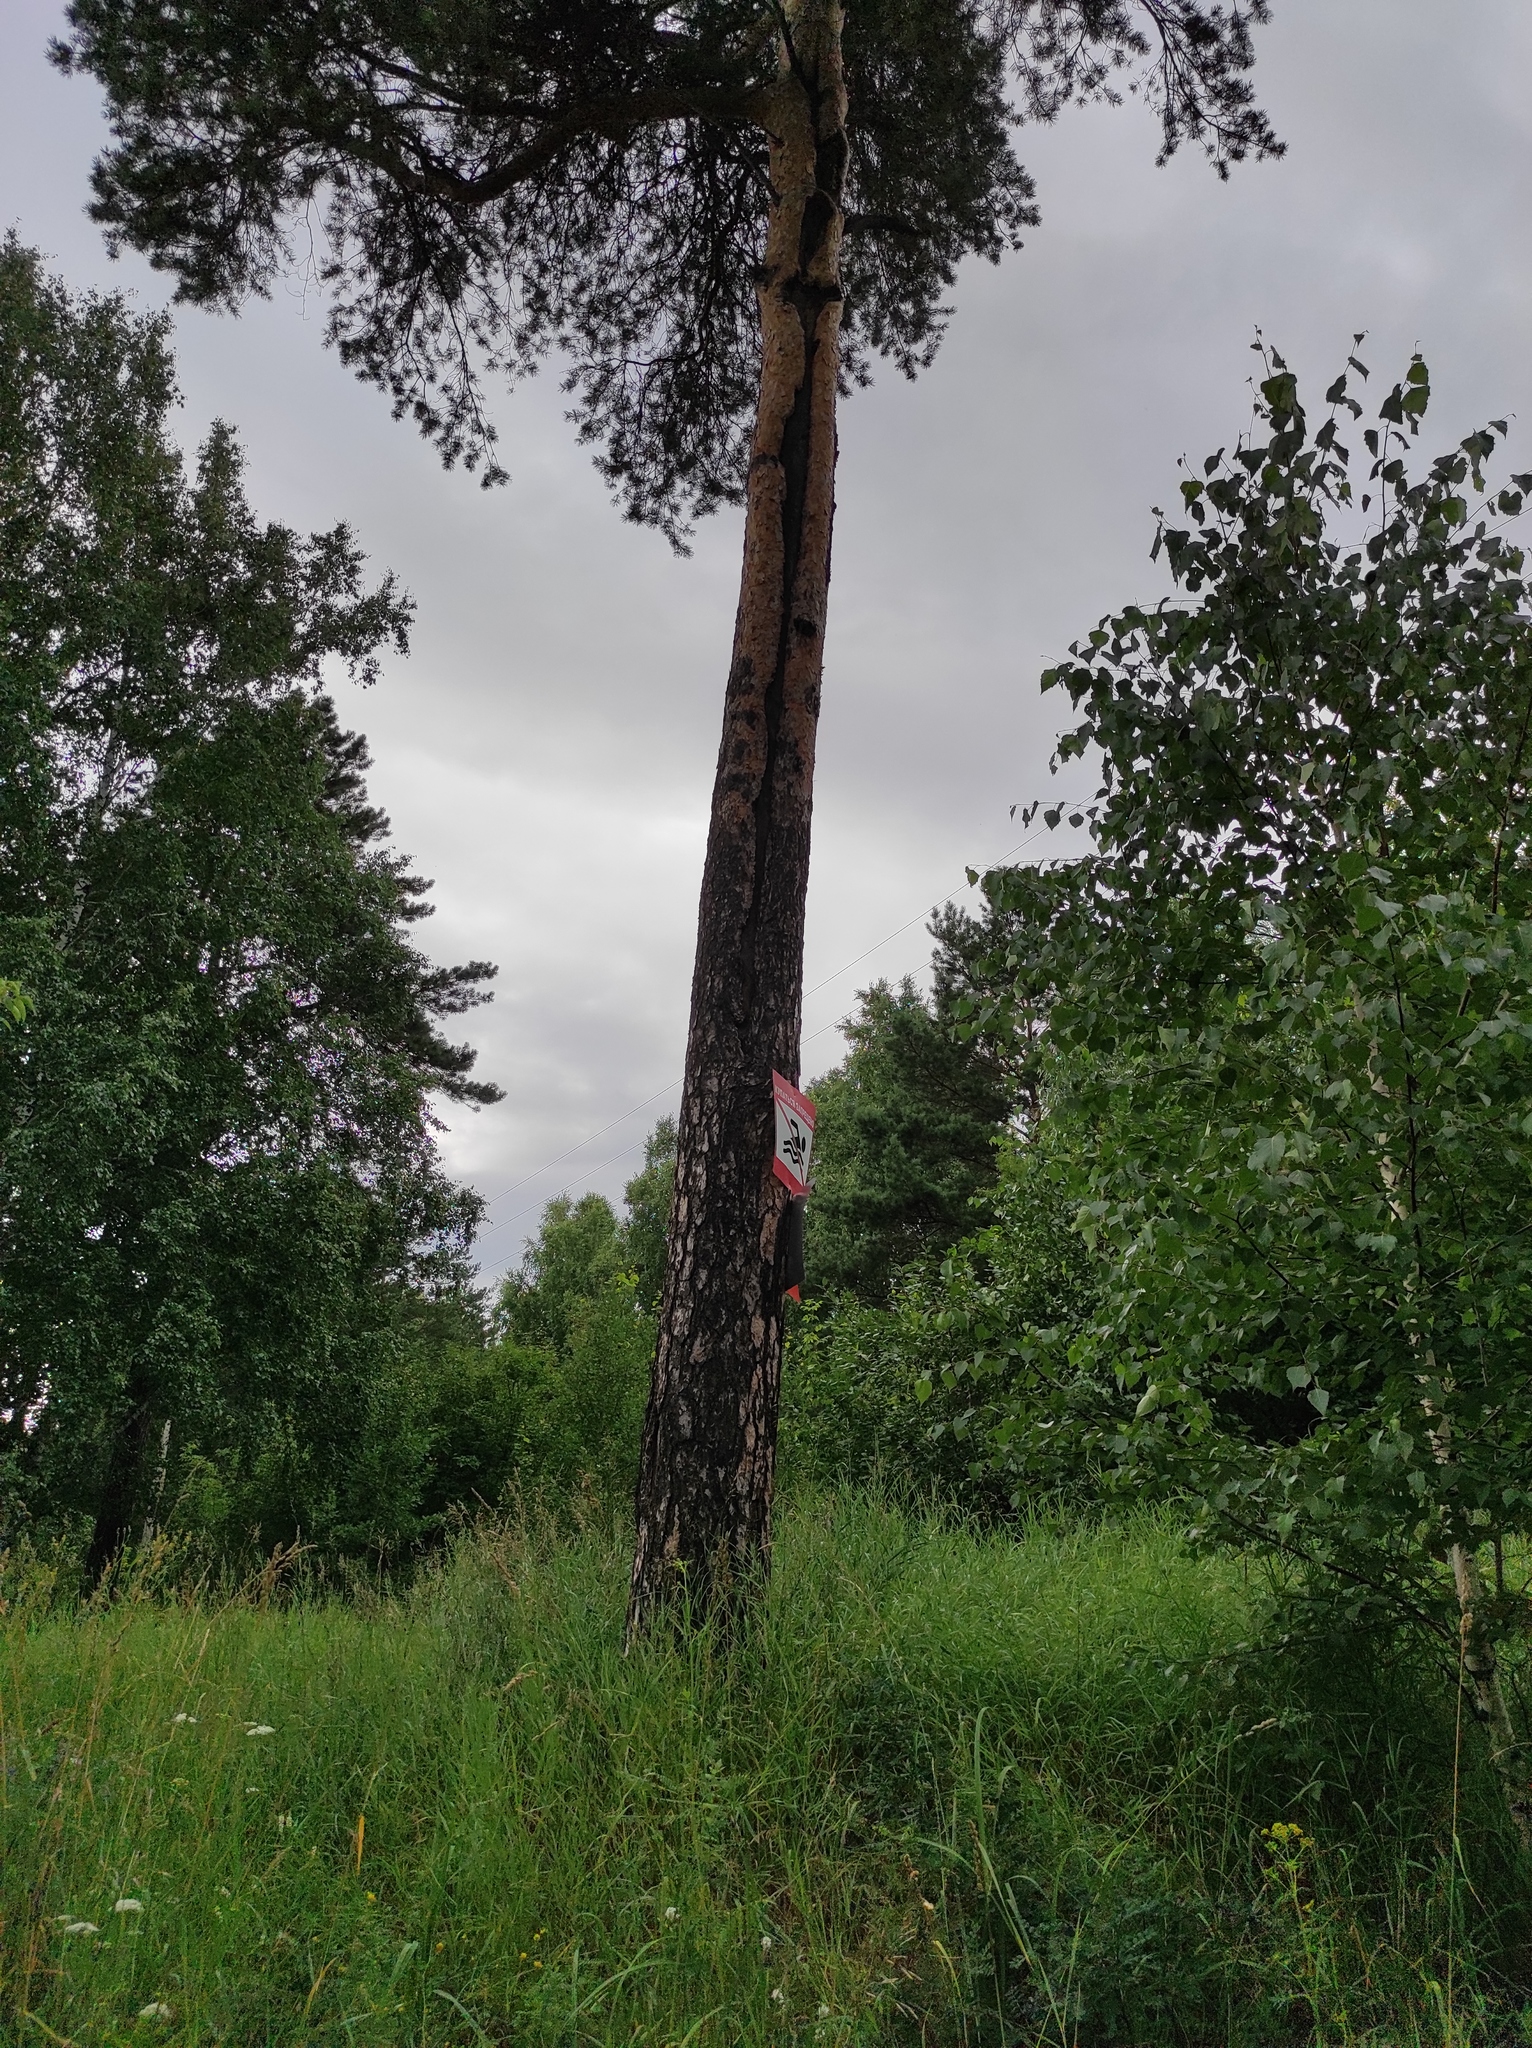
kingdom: Plantae
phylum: Tracheophyta
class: Pinopsida
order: Pinales
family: Pinaceae
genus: Pinus
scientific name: Pinus sylvestris
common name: Scots pine
